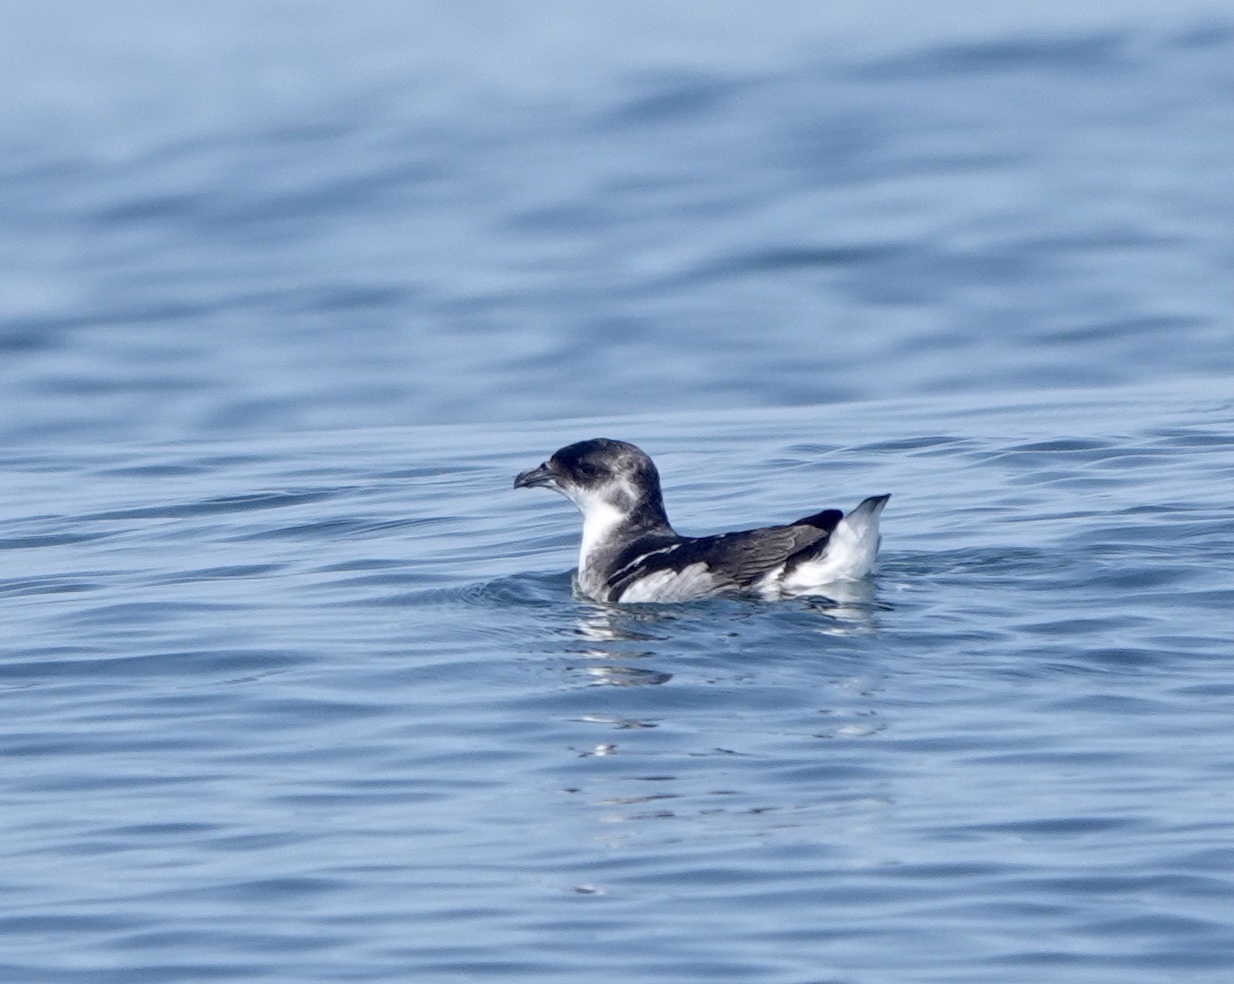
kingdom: Animalia
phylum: Chordata
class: Aves
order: Procellariiformes
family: Pelecanoididae
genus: Pelecanoides
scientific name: Pelecanoides garnotii
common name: Peruvian diving-petrel
